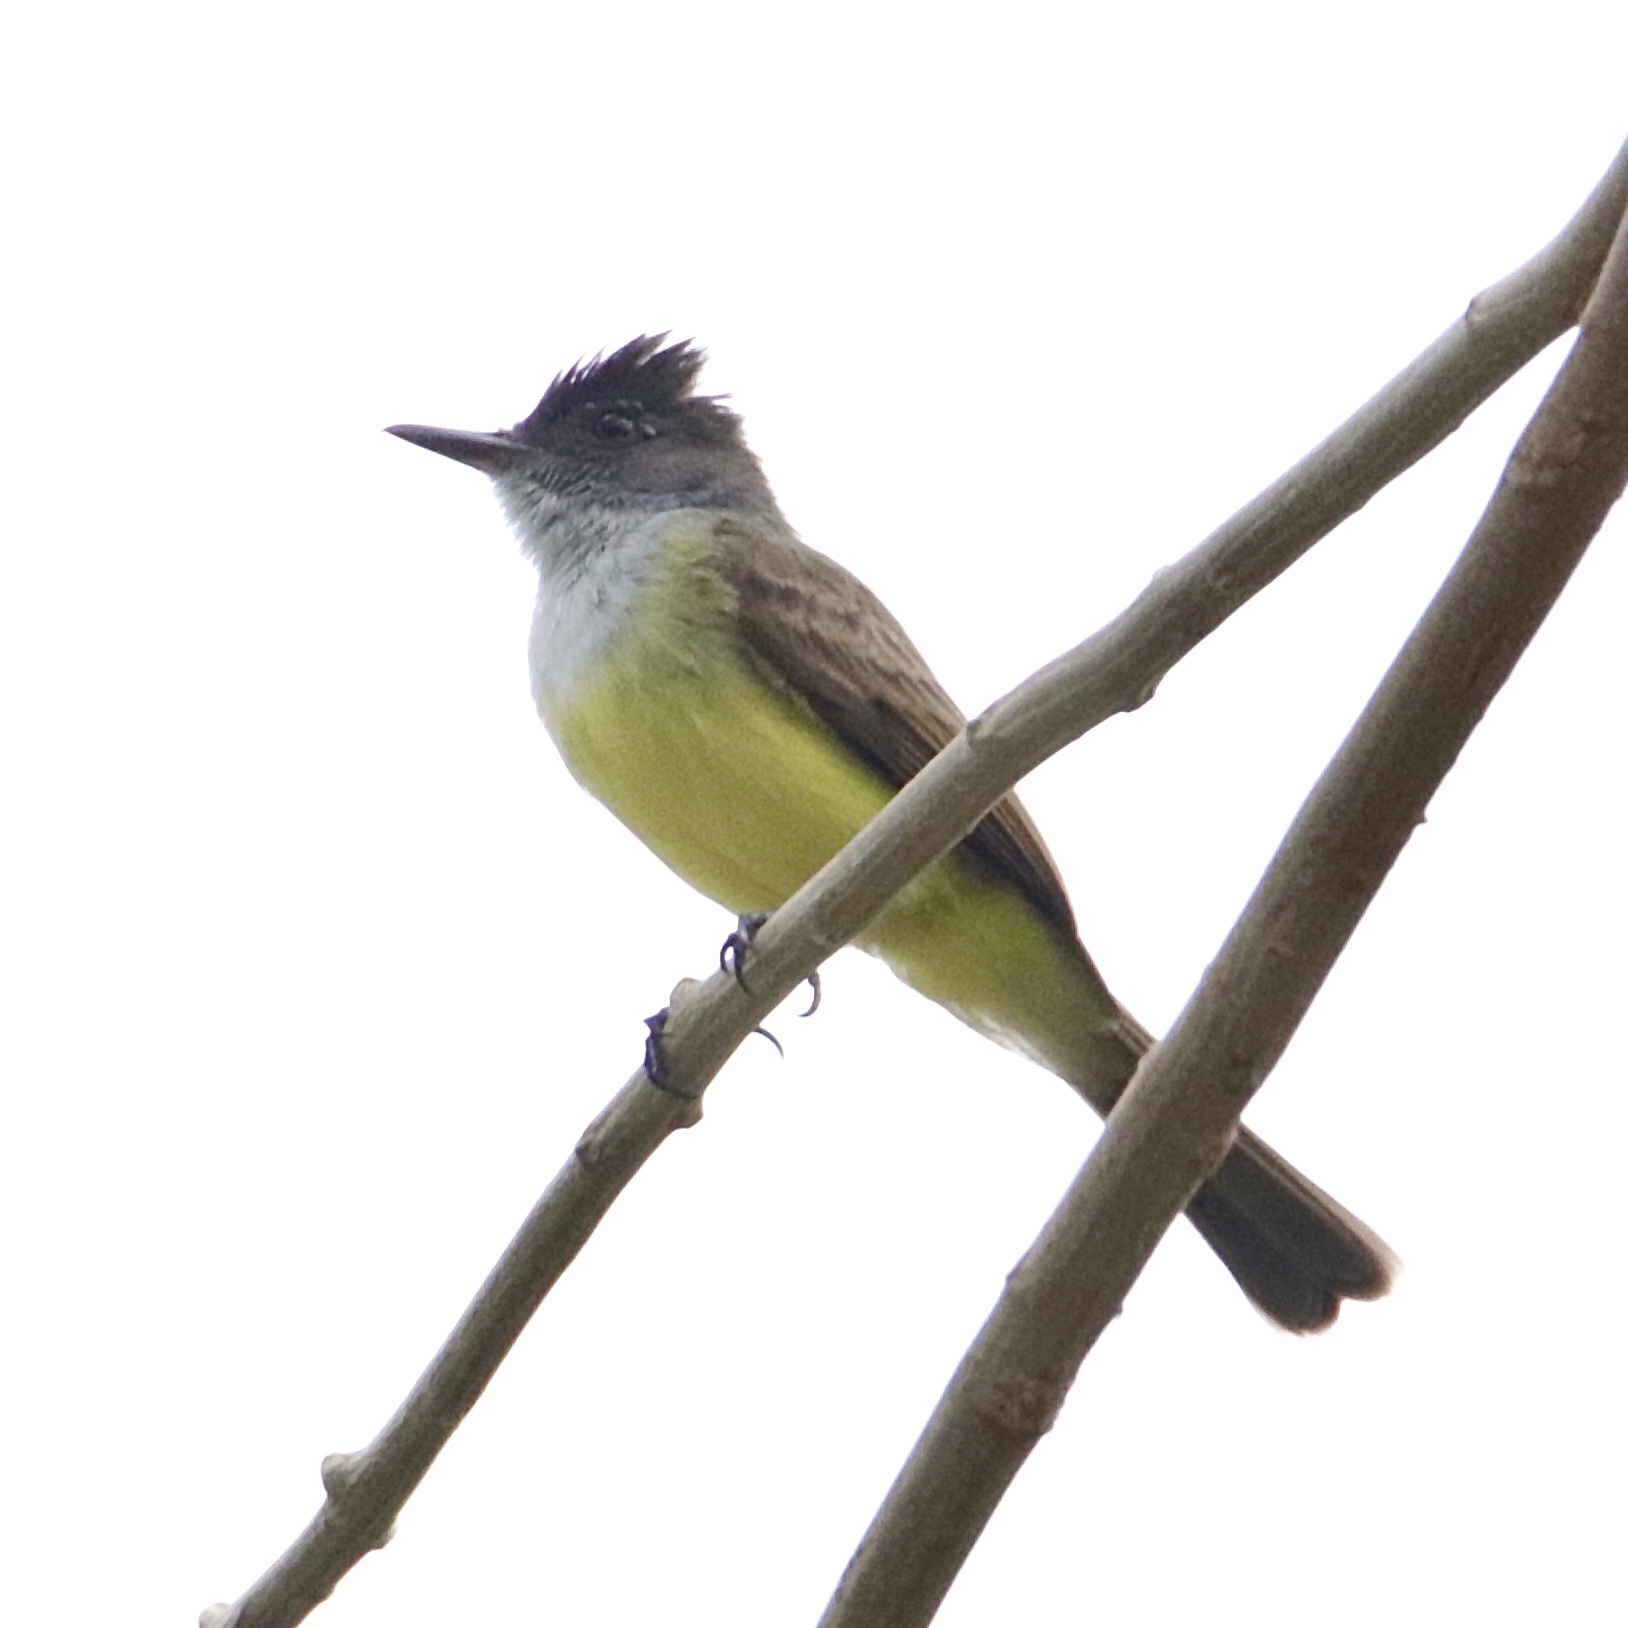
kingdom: Animalia
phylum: Chordata
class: Aves
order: Passeriformes
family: Tyrannidae
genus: Myiarchus
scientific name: Myiarchus tuberculifer
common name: Dusky-capped flycatcher
